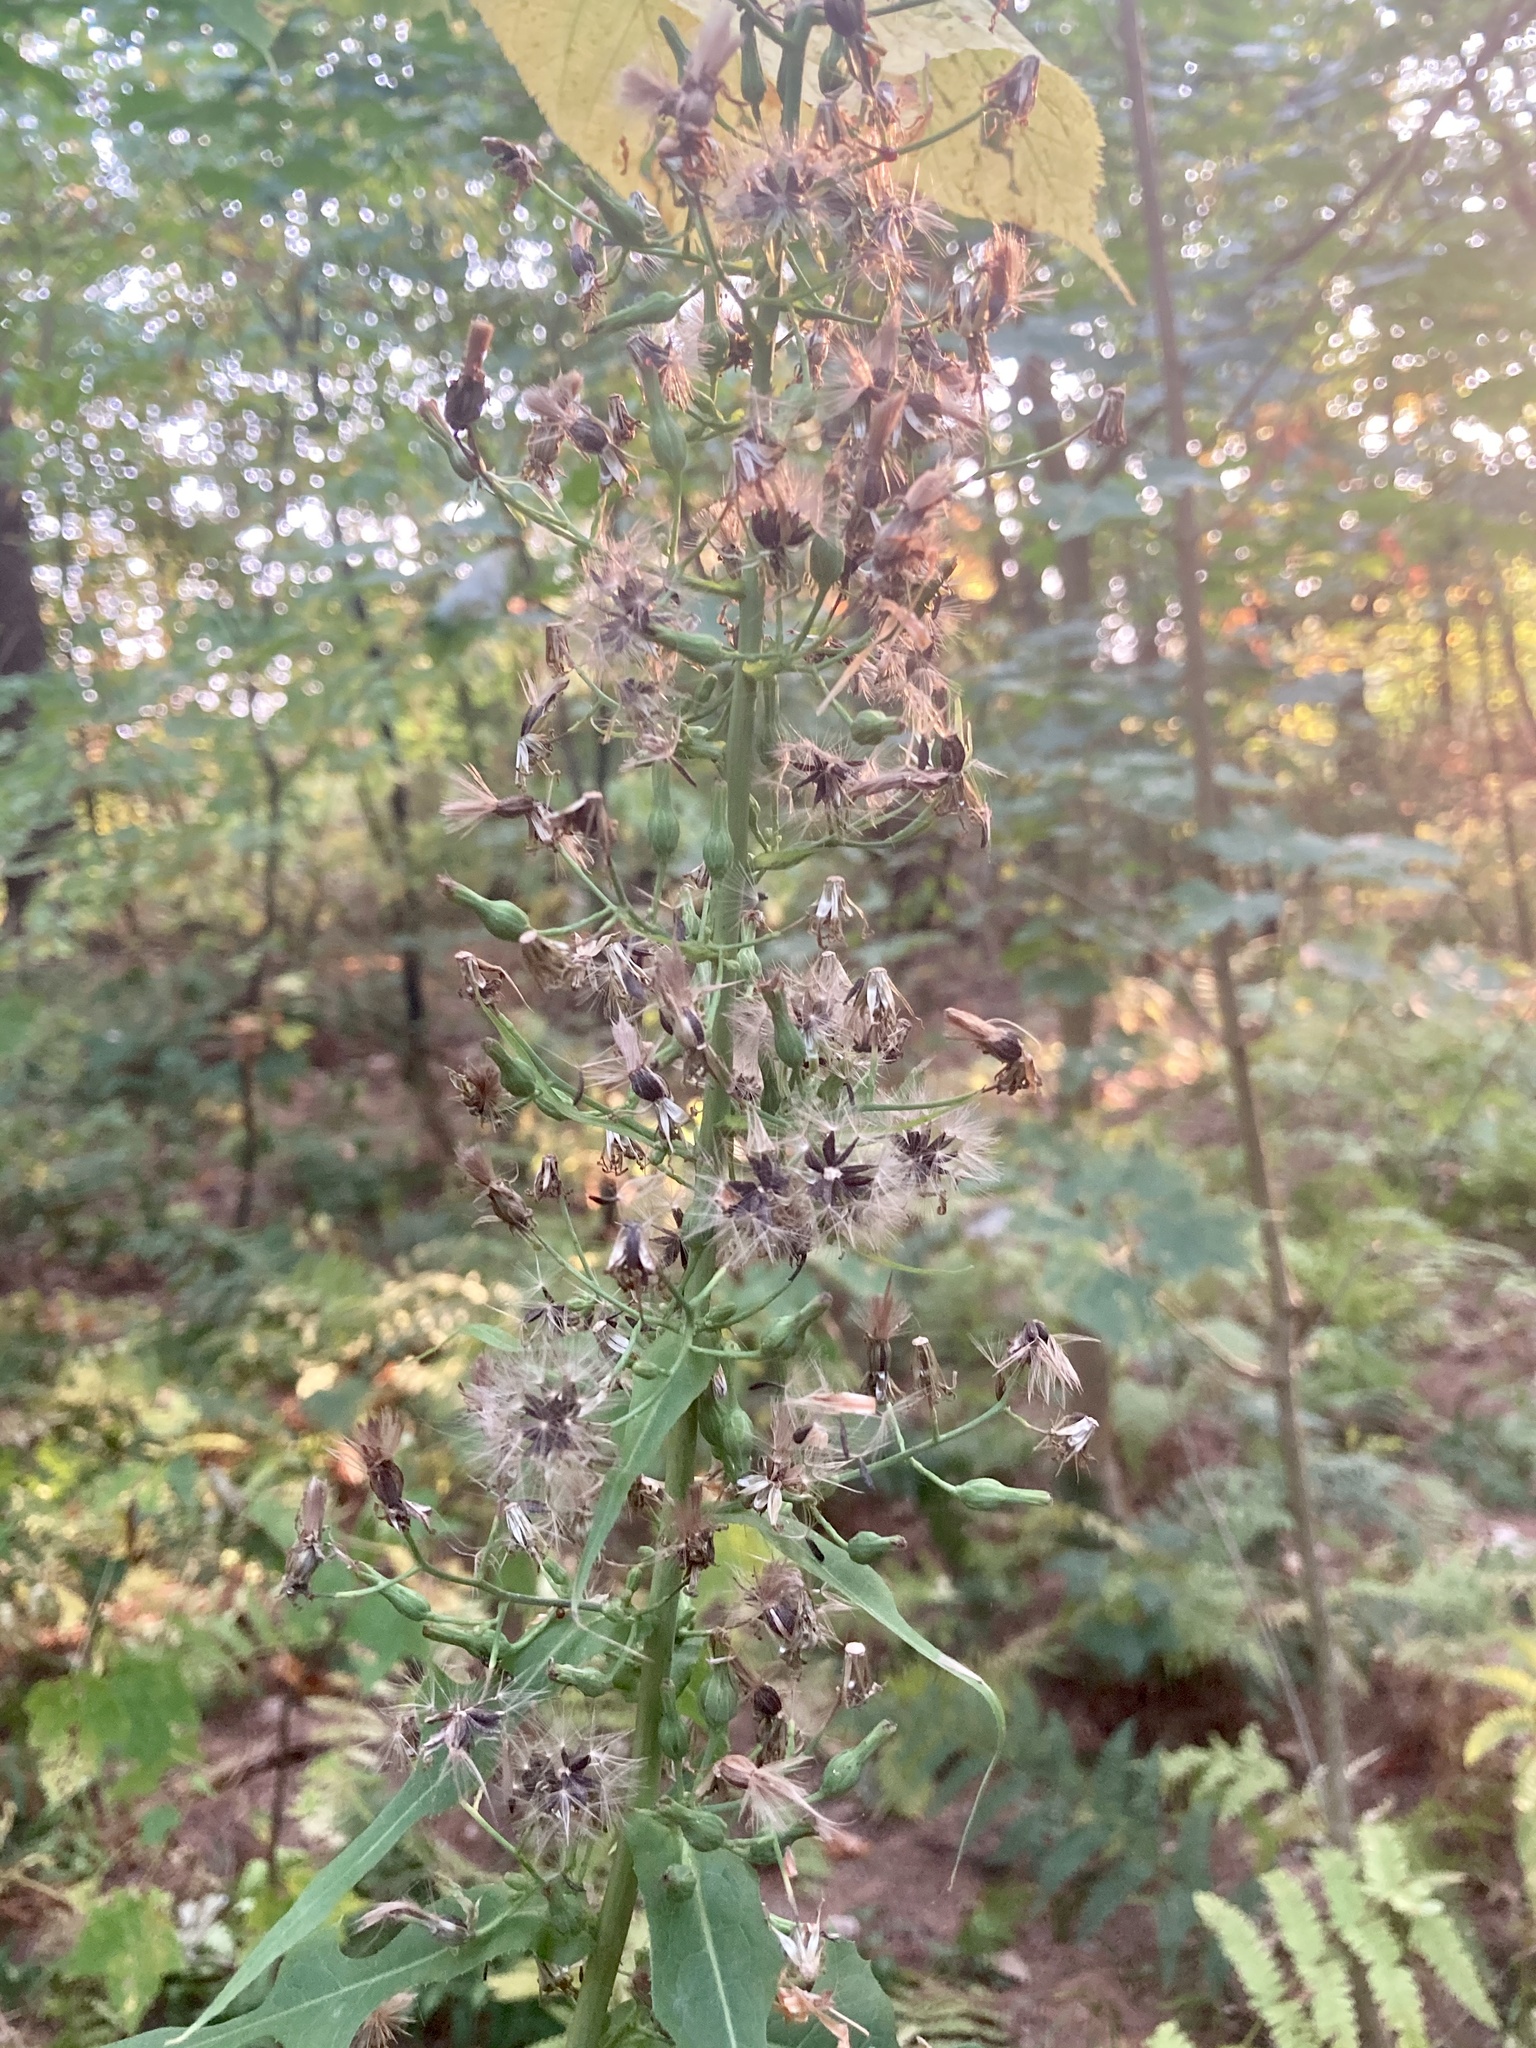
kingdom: Plantae
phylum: Tracheophyta
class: Magnoliopsida
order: Asterales
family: Asteraceae
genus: Lactuca
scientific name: Lactuca biennis
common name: Blue wood lettuce
